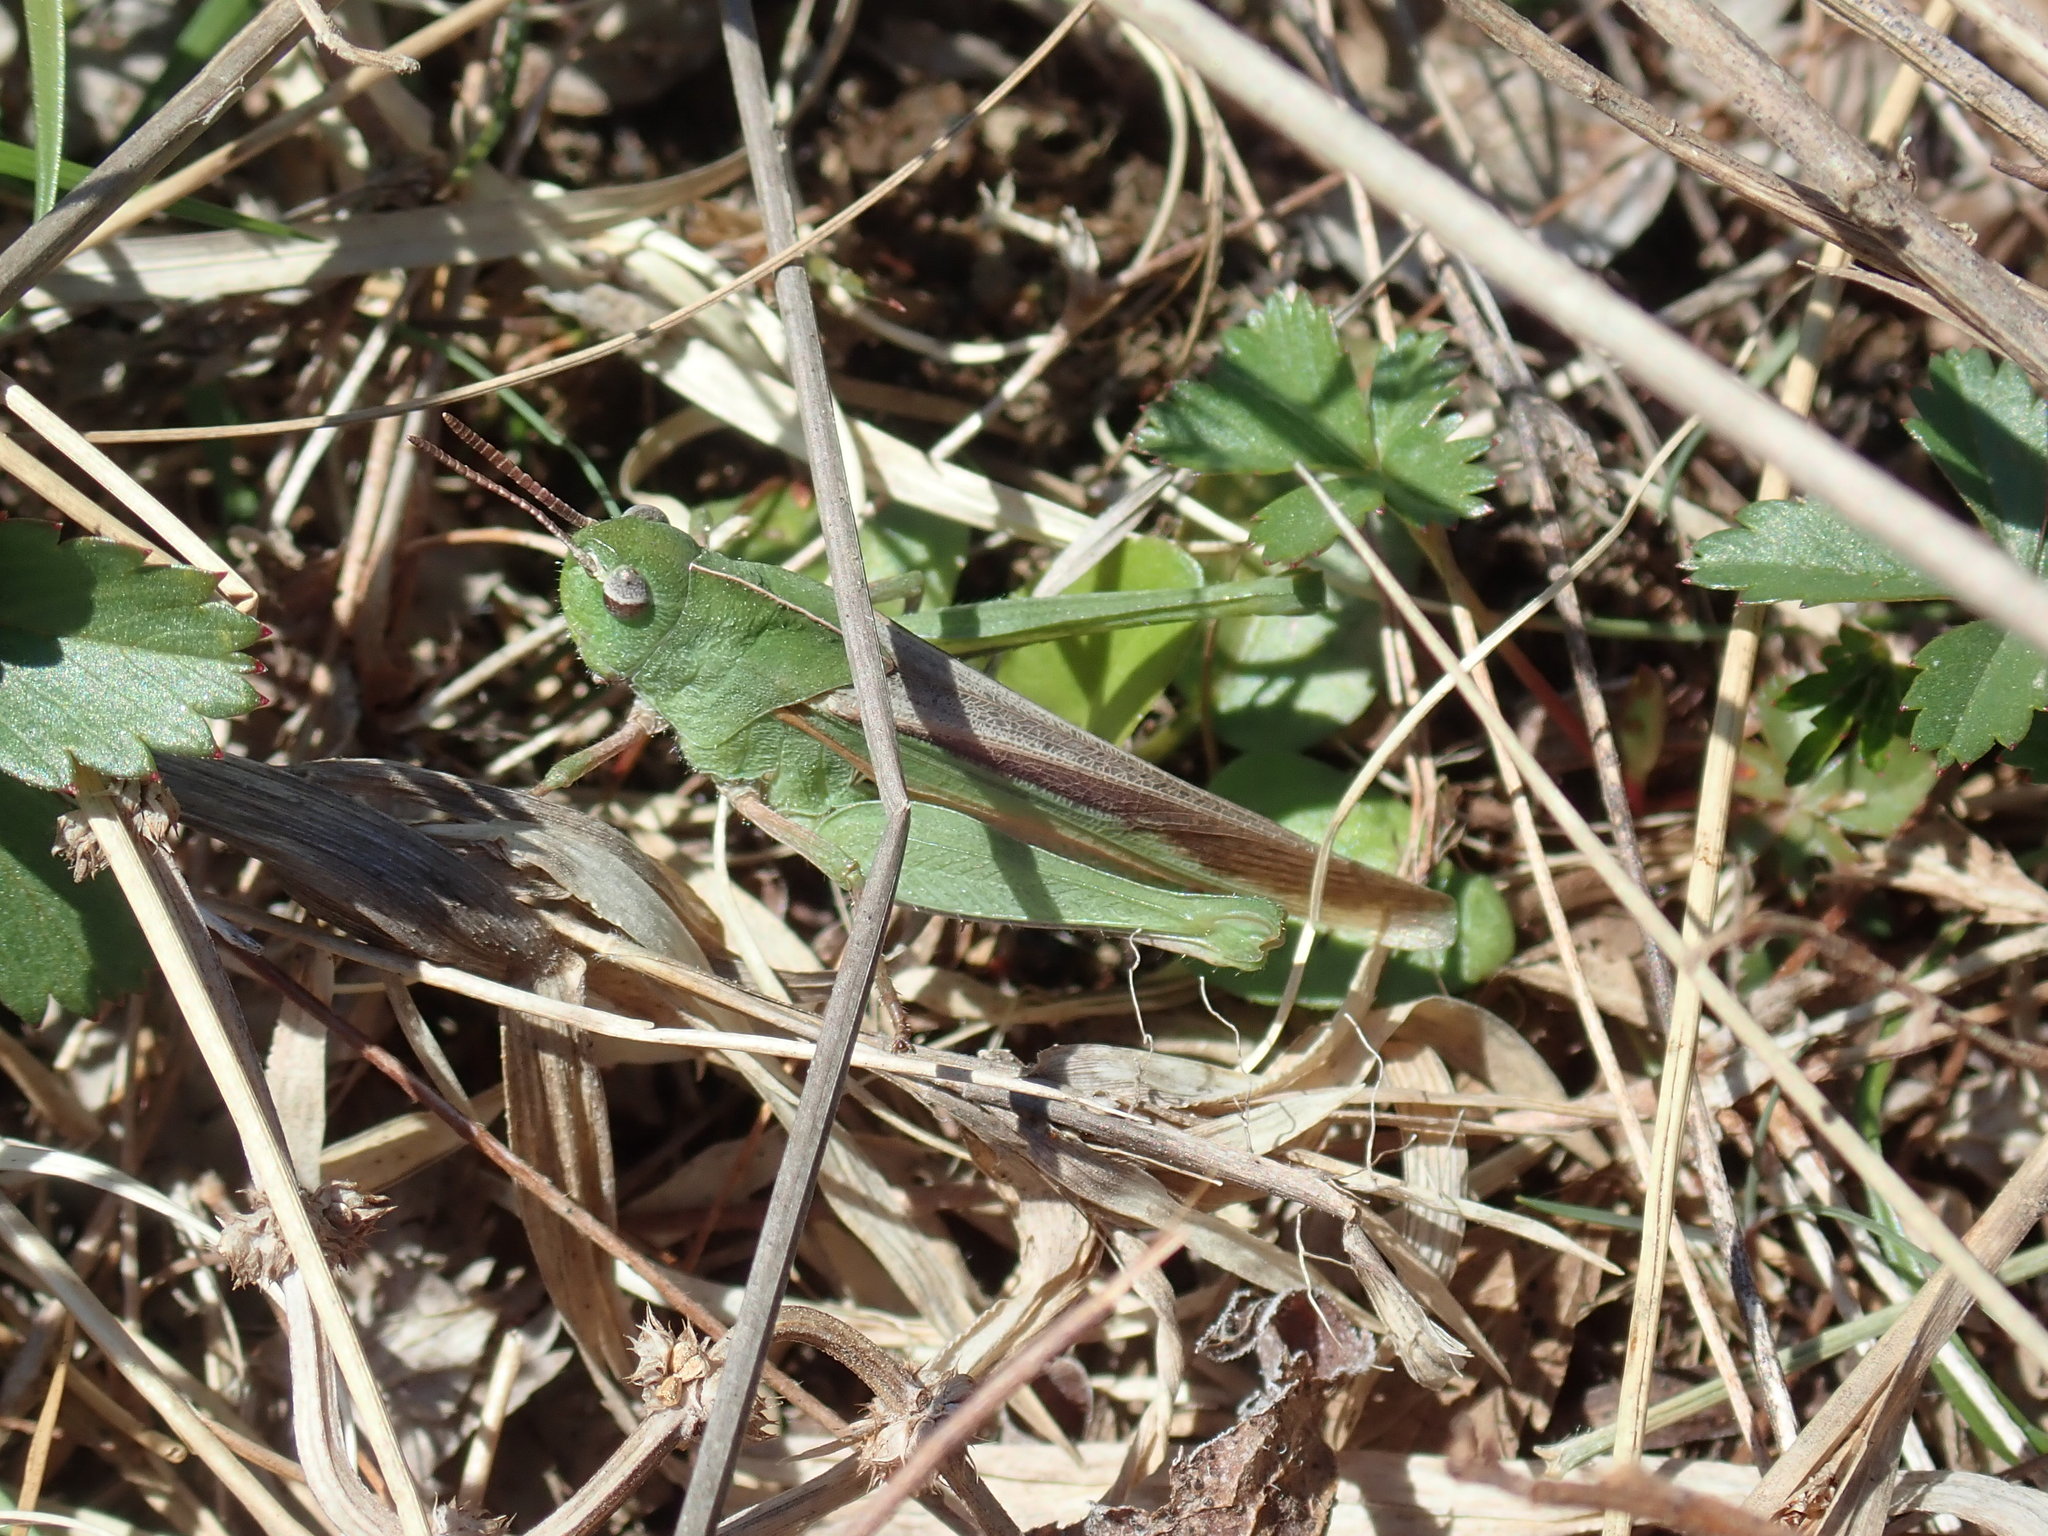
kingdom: Animalia
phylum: Arthropoda
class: Insecta
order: Orthoptera
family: Acrididae
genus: Chortophaga
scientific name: Chortophaga viridifasciata
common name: Green-striped grasshopper
